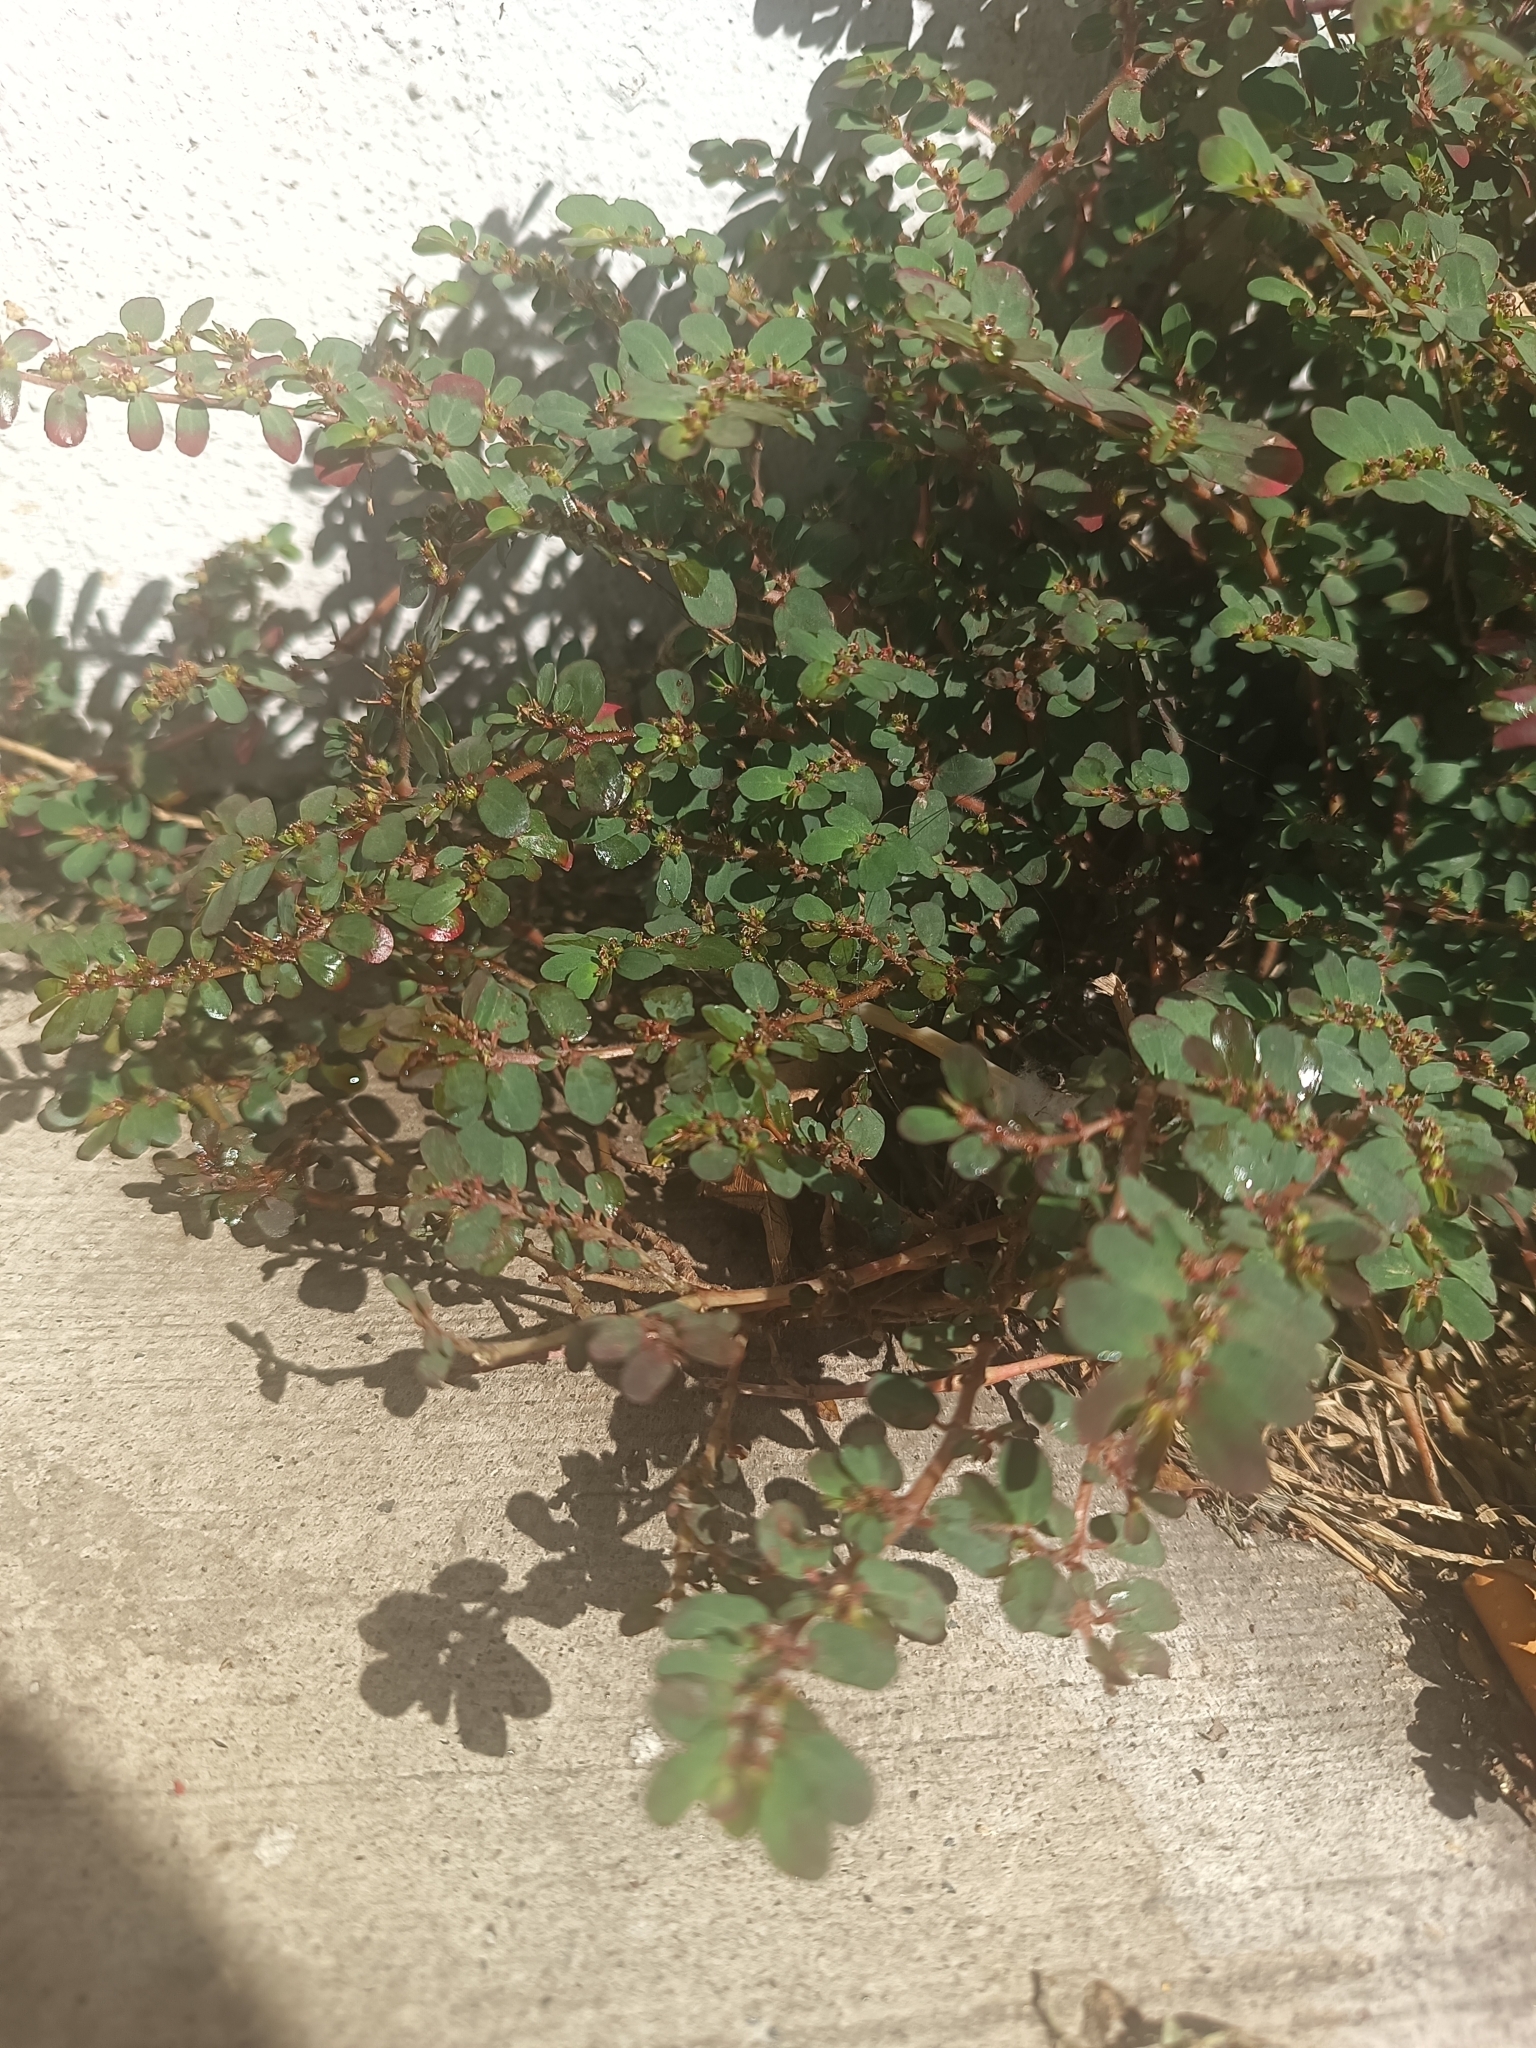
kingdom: Plantae
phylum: Tracheophyta
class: Magnoliopsida
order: Malpighiales
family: Euphorbiaceae
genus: Euphorbia
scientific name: Euphorbia mendezii
